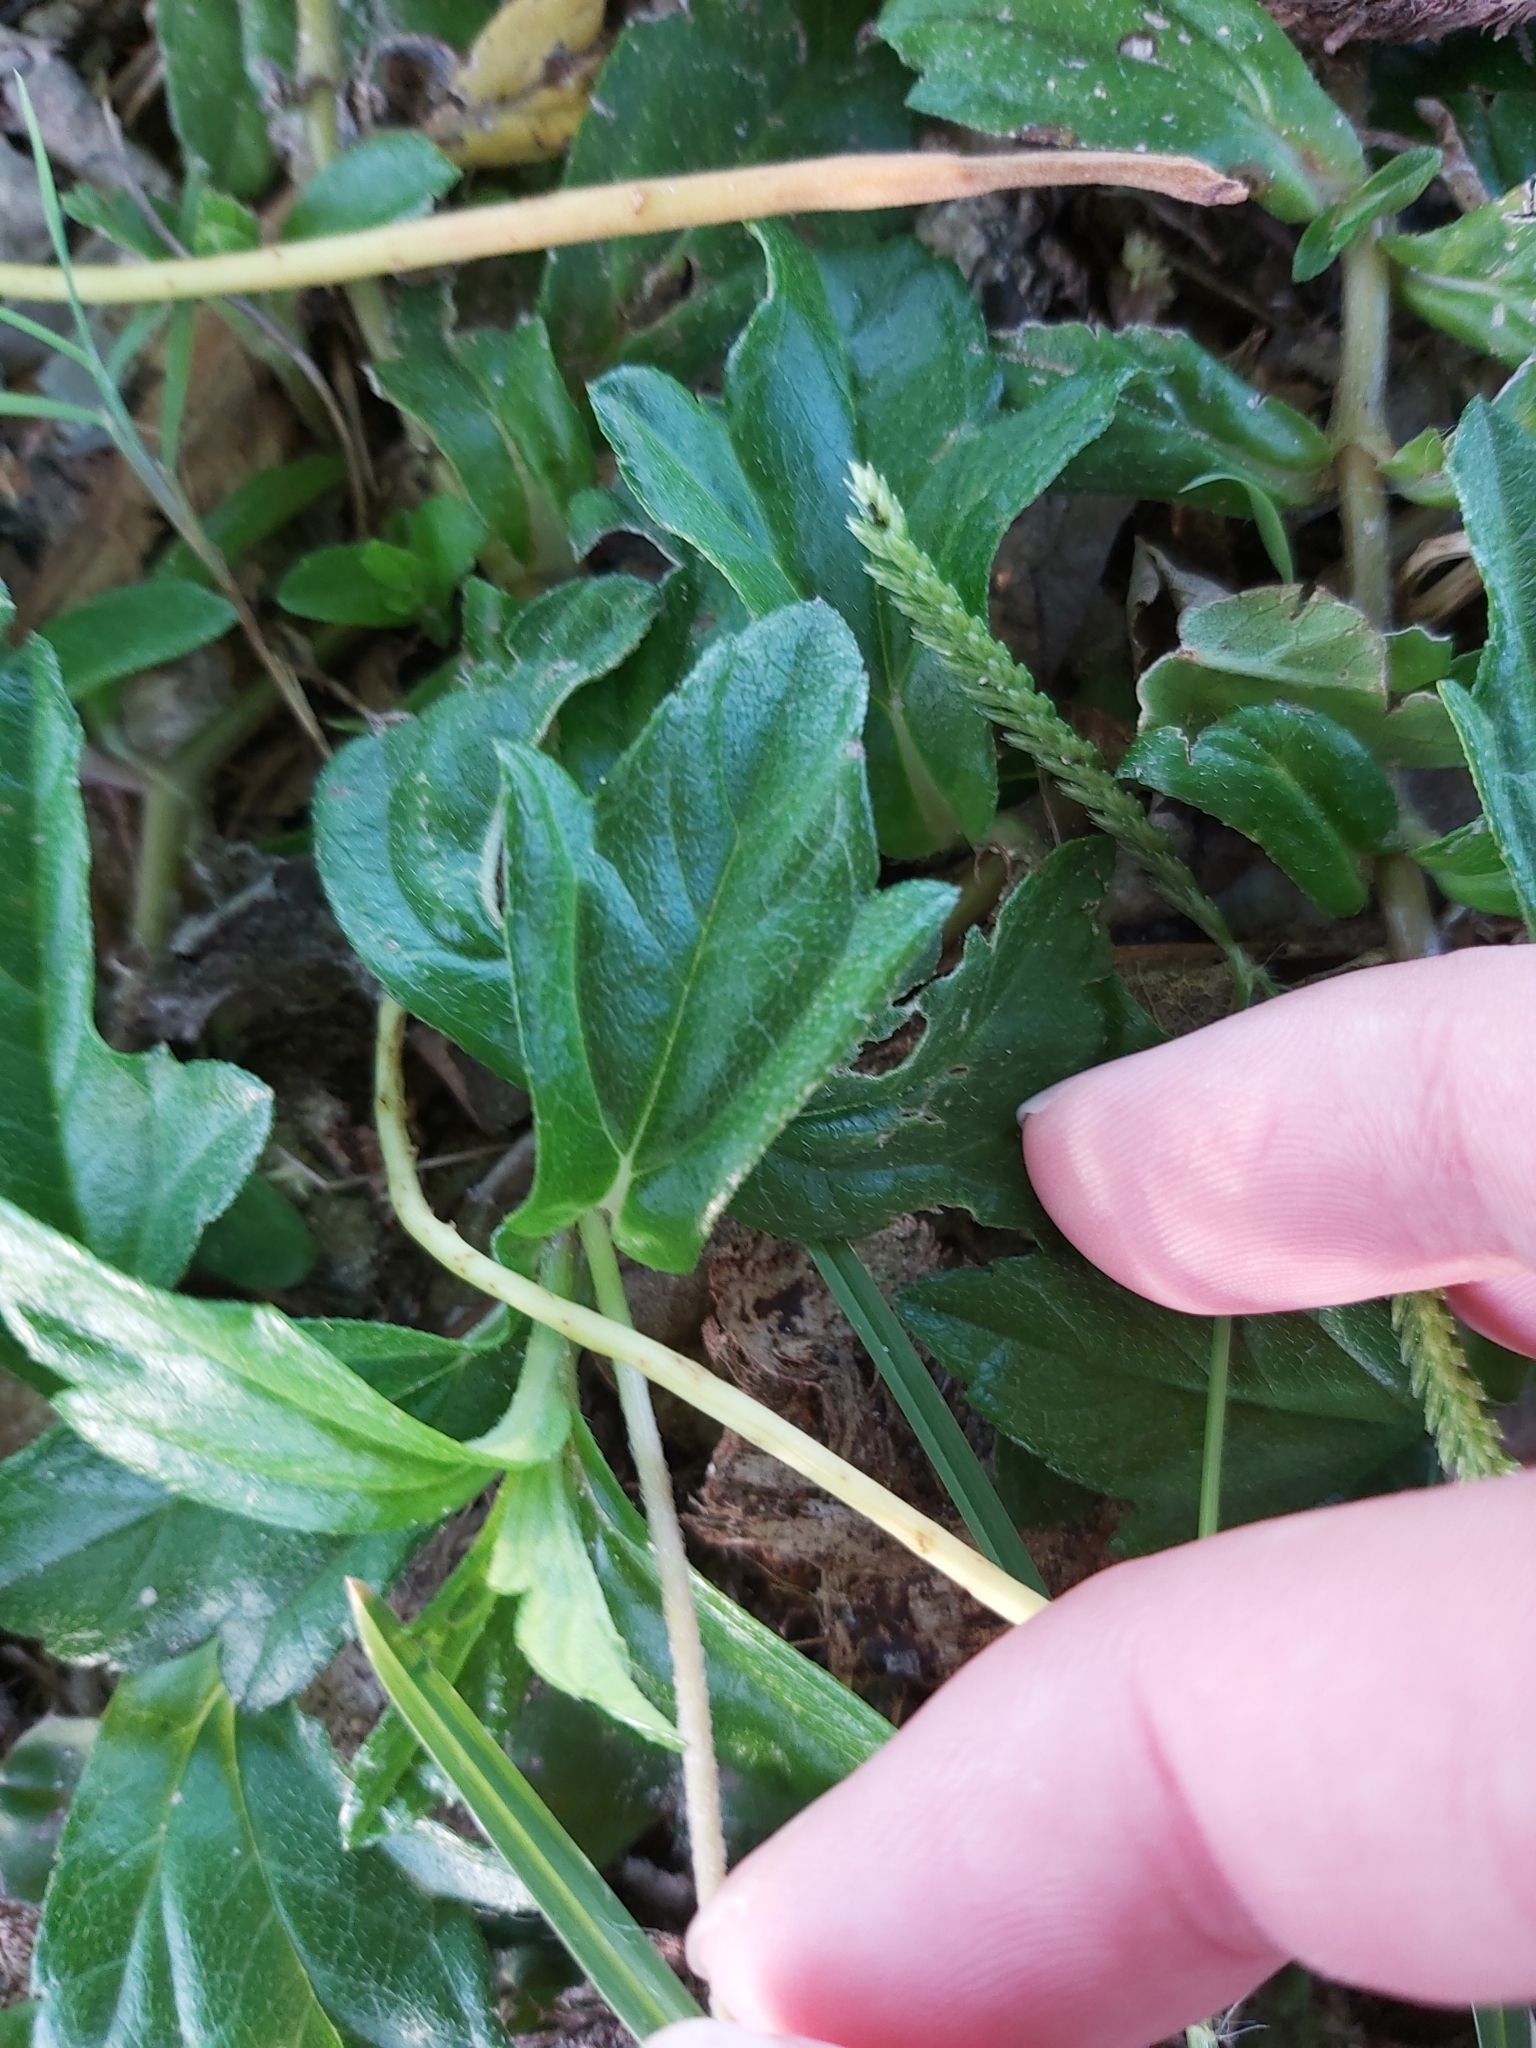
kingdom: Plantae
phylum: Tracheophyta
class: Magnoliopsida
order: Asterales
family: Asteraceae
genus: Sphagneticola
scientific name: Sphagneticola trilobata
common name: Bay biscayne creeping-oxeye
